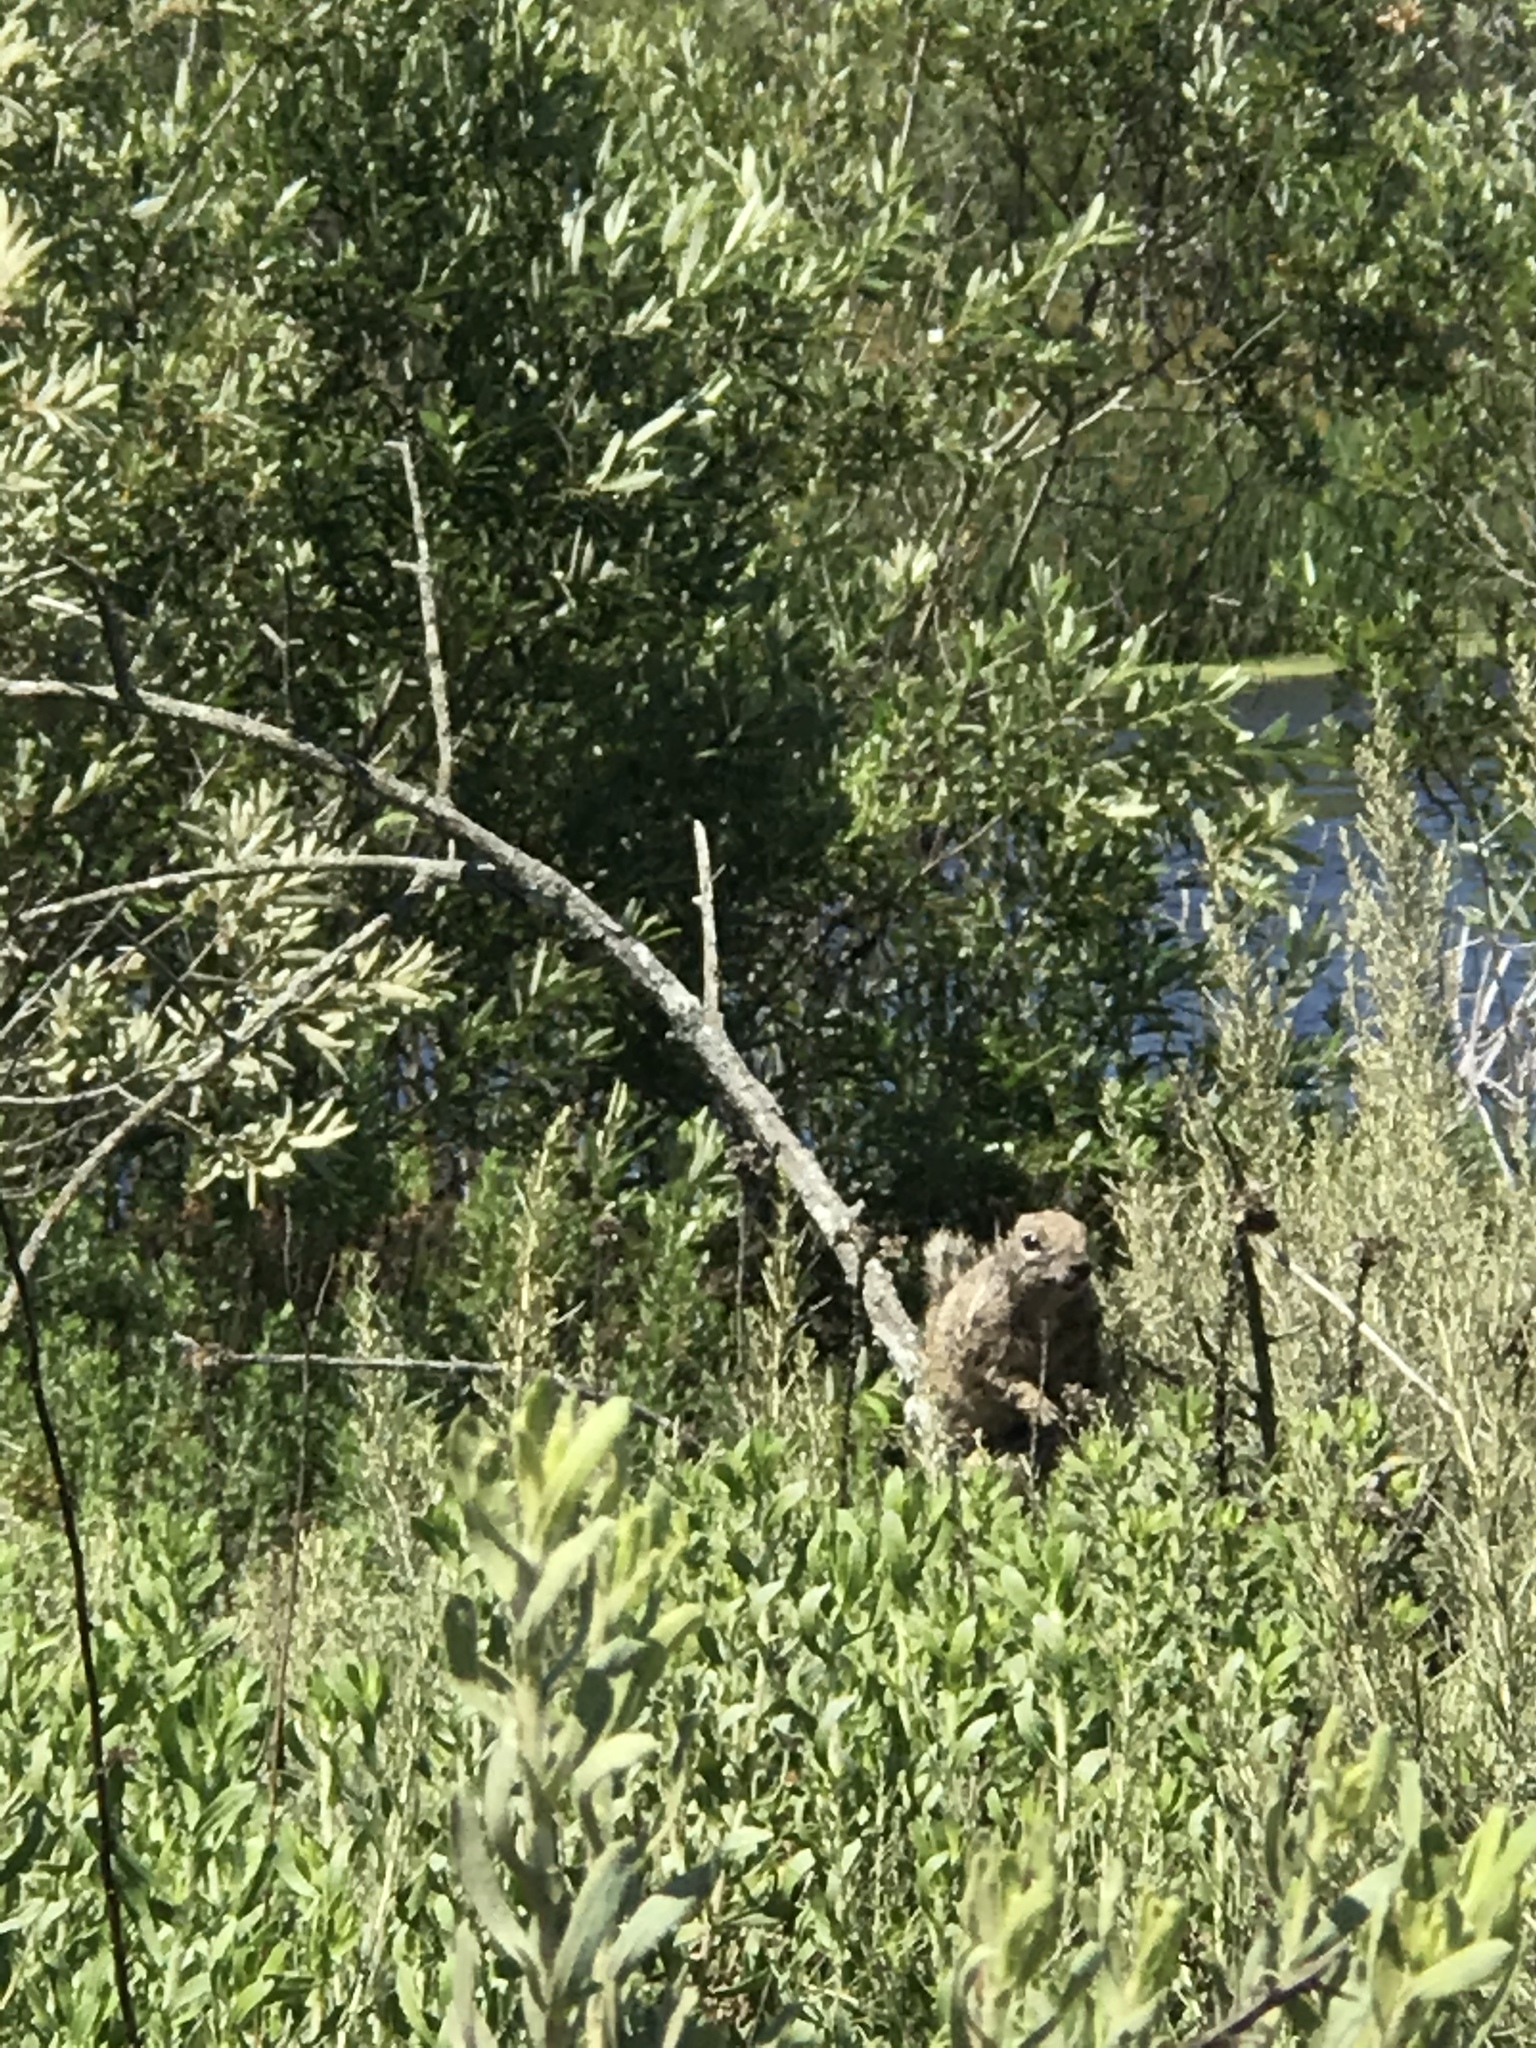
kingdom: Animalia
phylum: Chordata
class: Mammalia
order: Rodentia
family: Sciuridae
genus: Otospermophilus
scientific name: Otospermophilus beecheyi
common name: California ground squirrel
